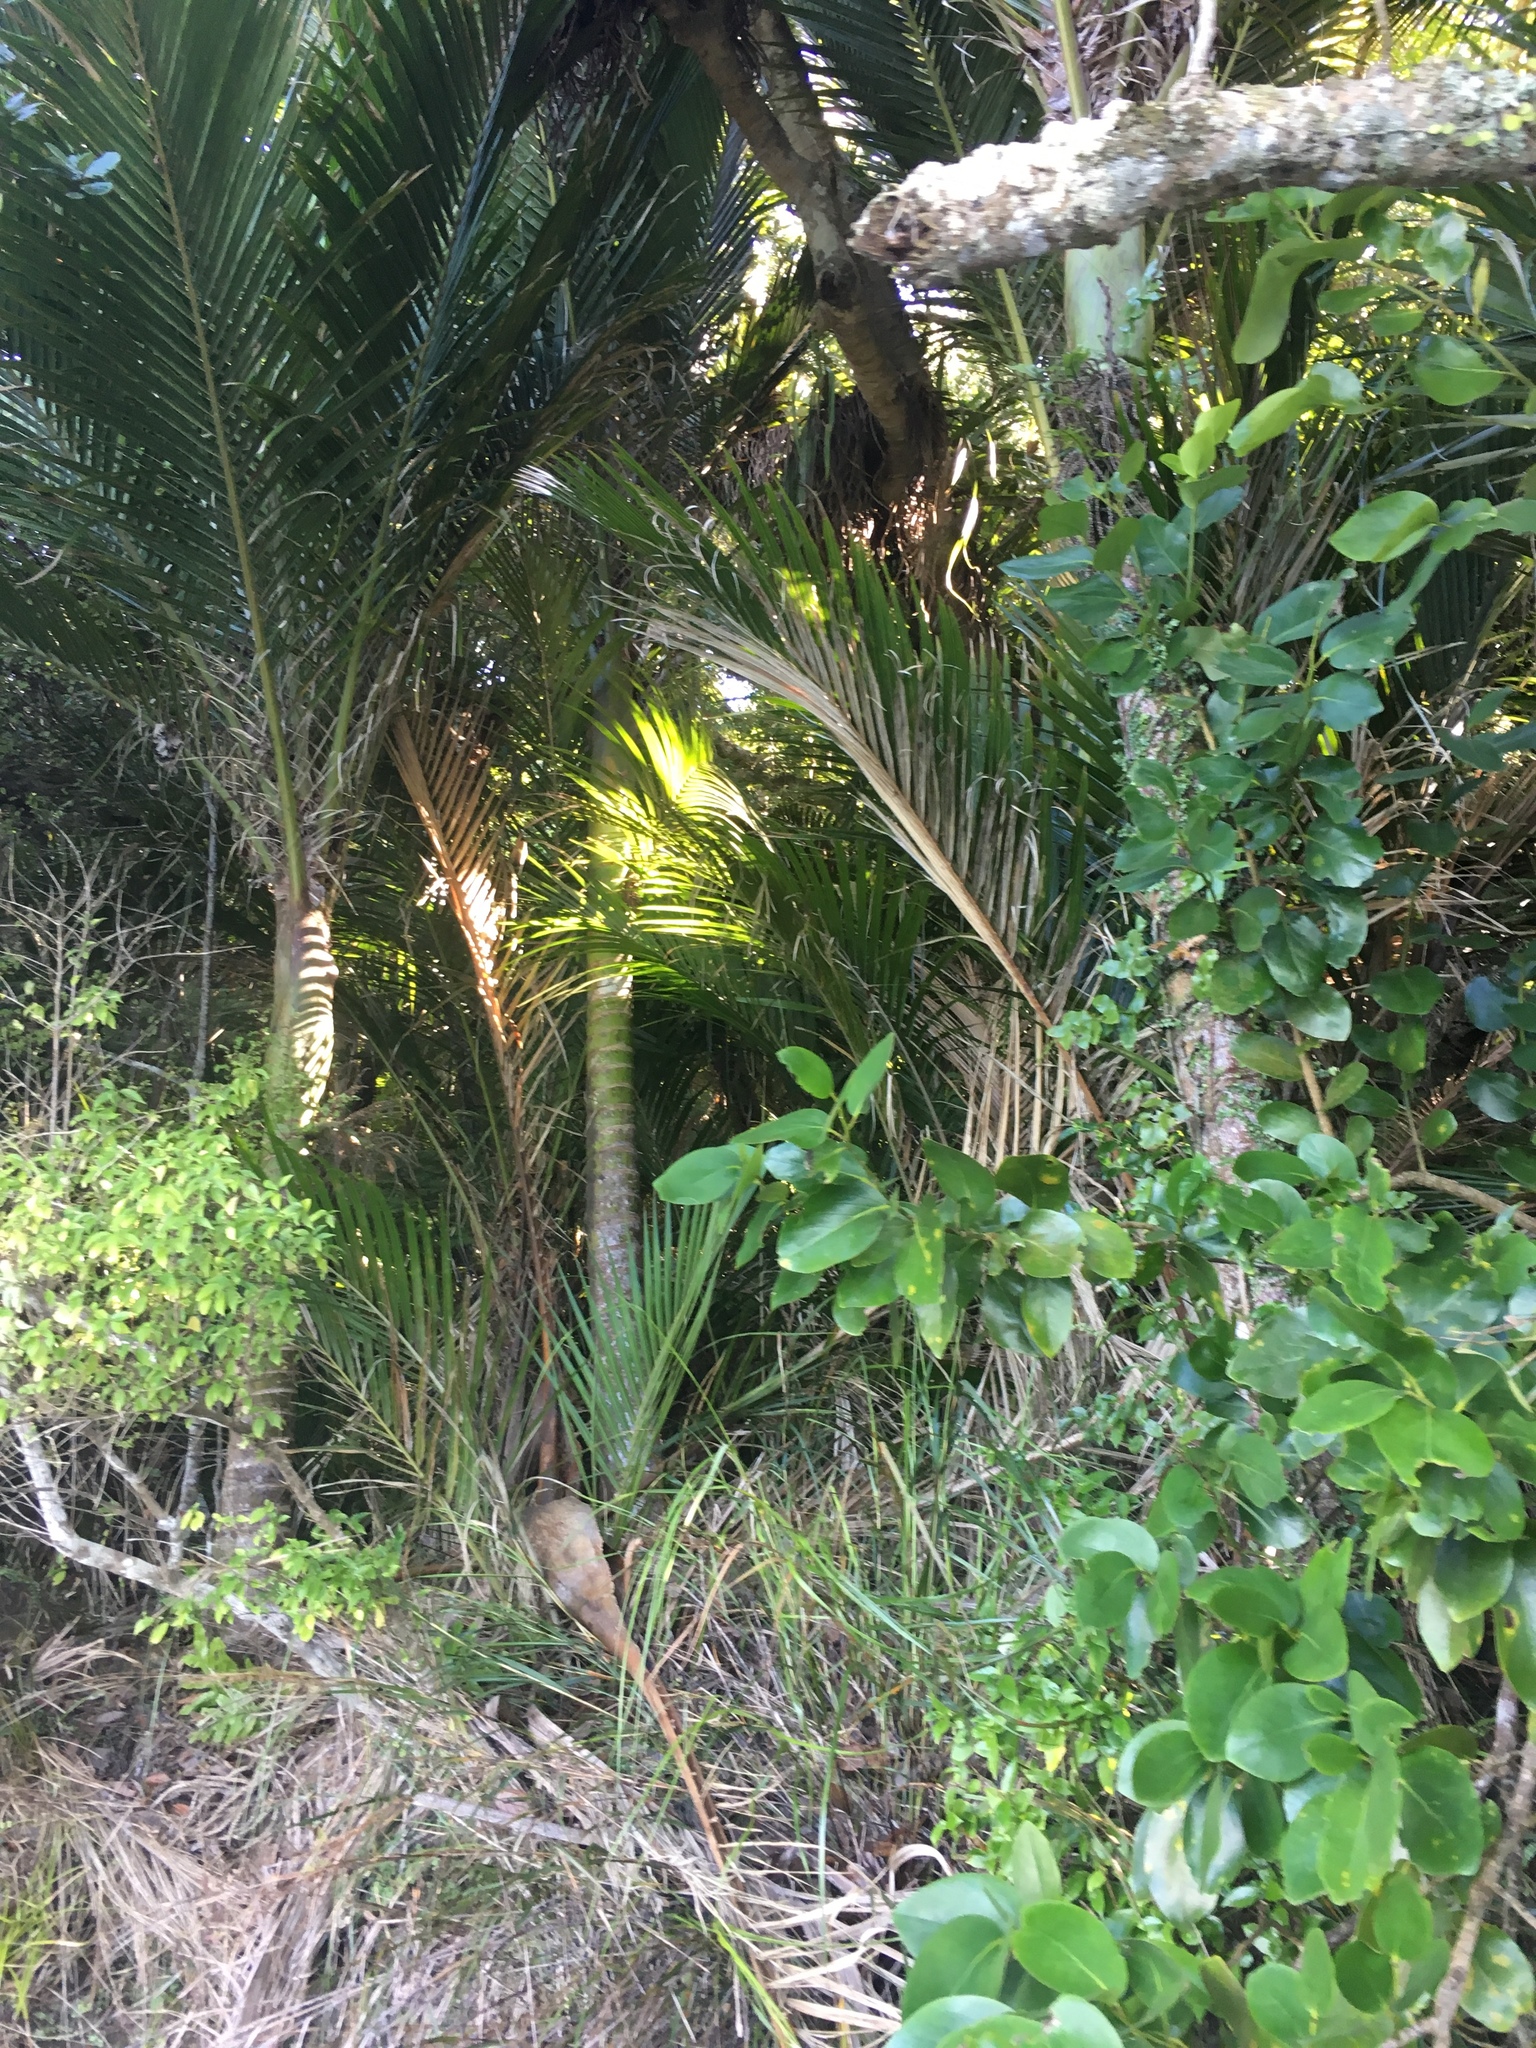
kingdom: Plantae
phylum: Tracheophyta
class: Magnoliopsida
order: Apiales
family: Griseliniaceae
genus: Griselinia
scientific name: Griselinia lucida
